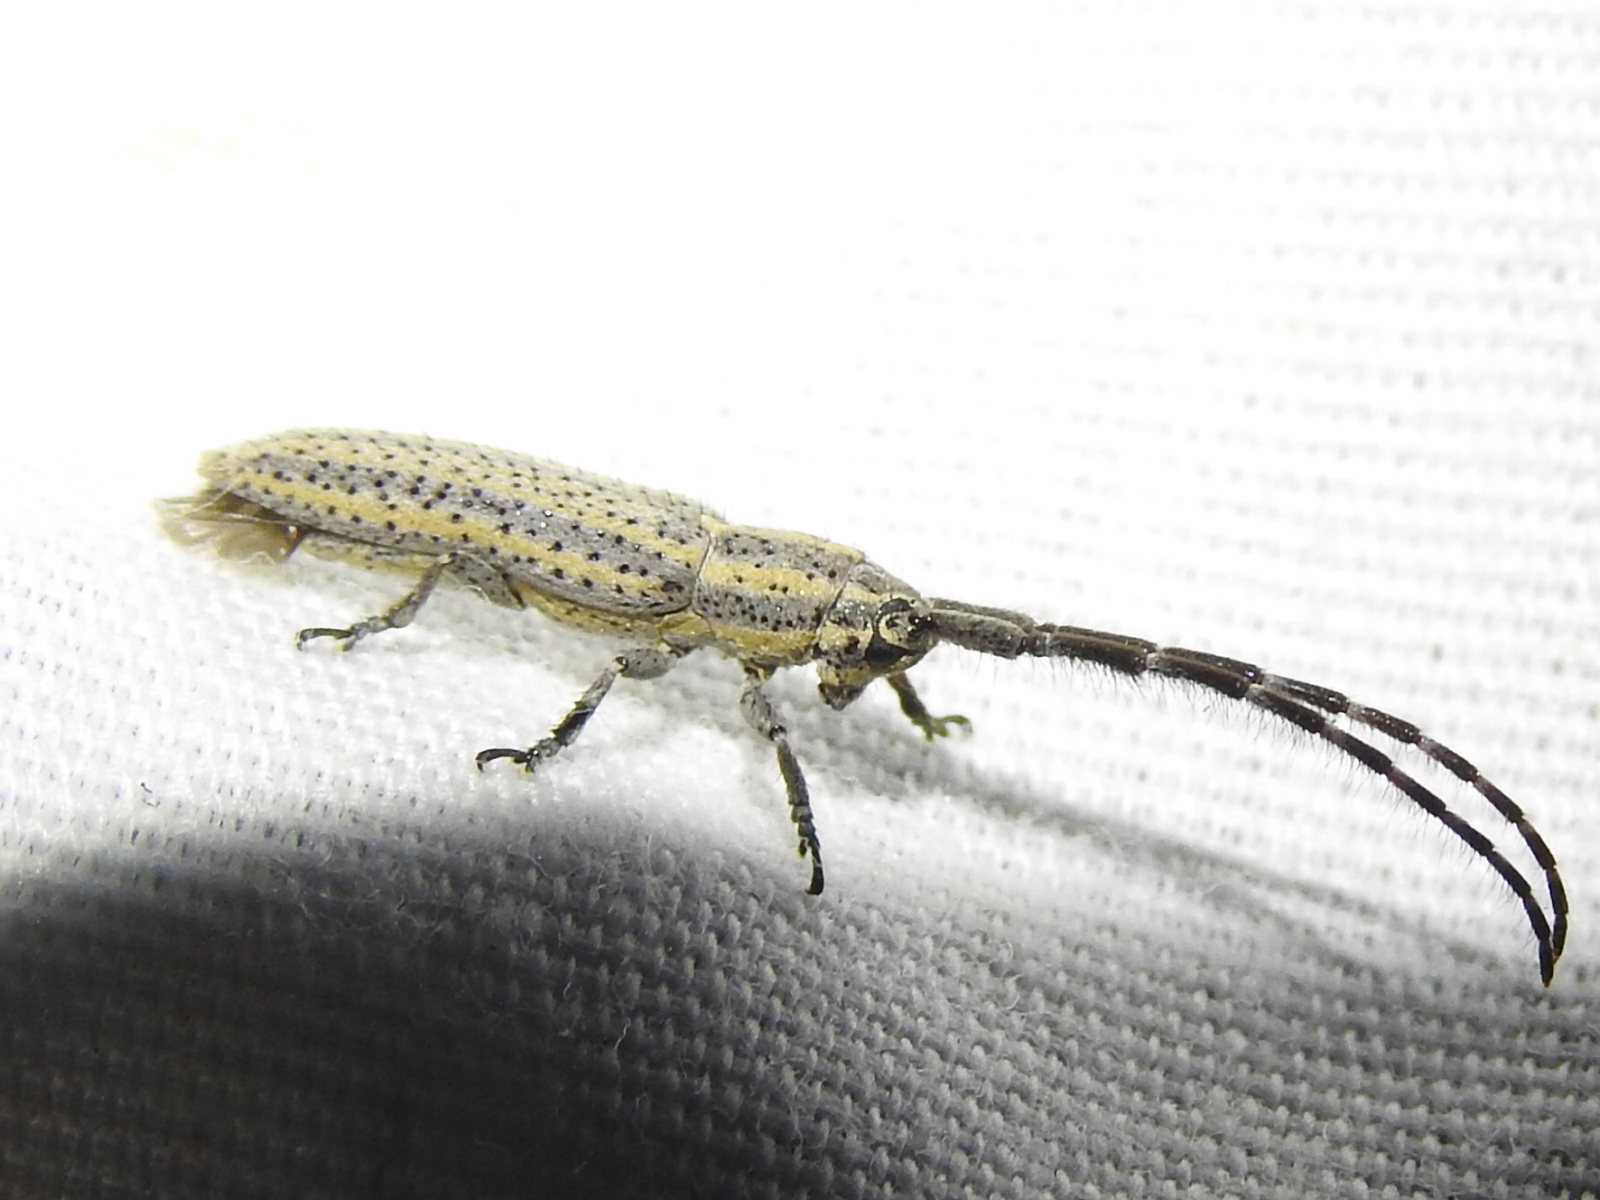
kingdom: Animalia
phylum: Arthropoda
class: Insecta
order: Coleoptera
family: Cerambycidae
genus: Dorcasta
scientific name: Dorcasta cinerea
